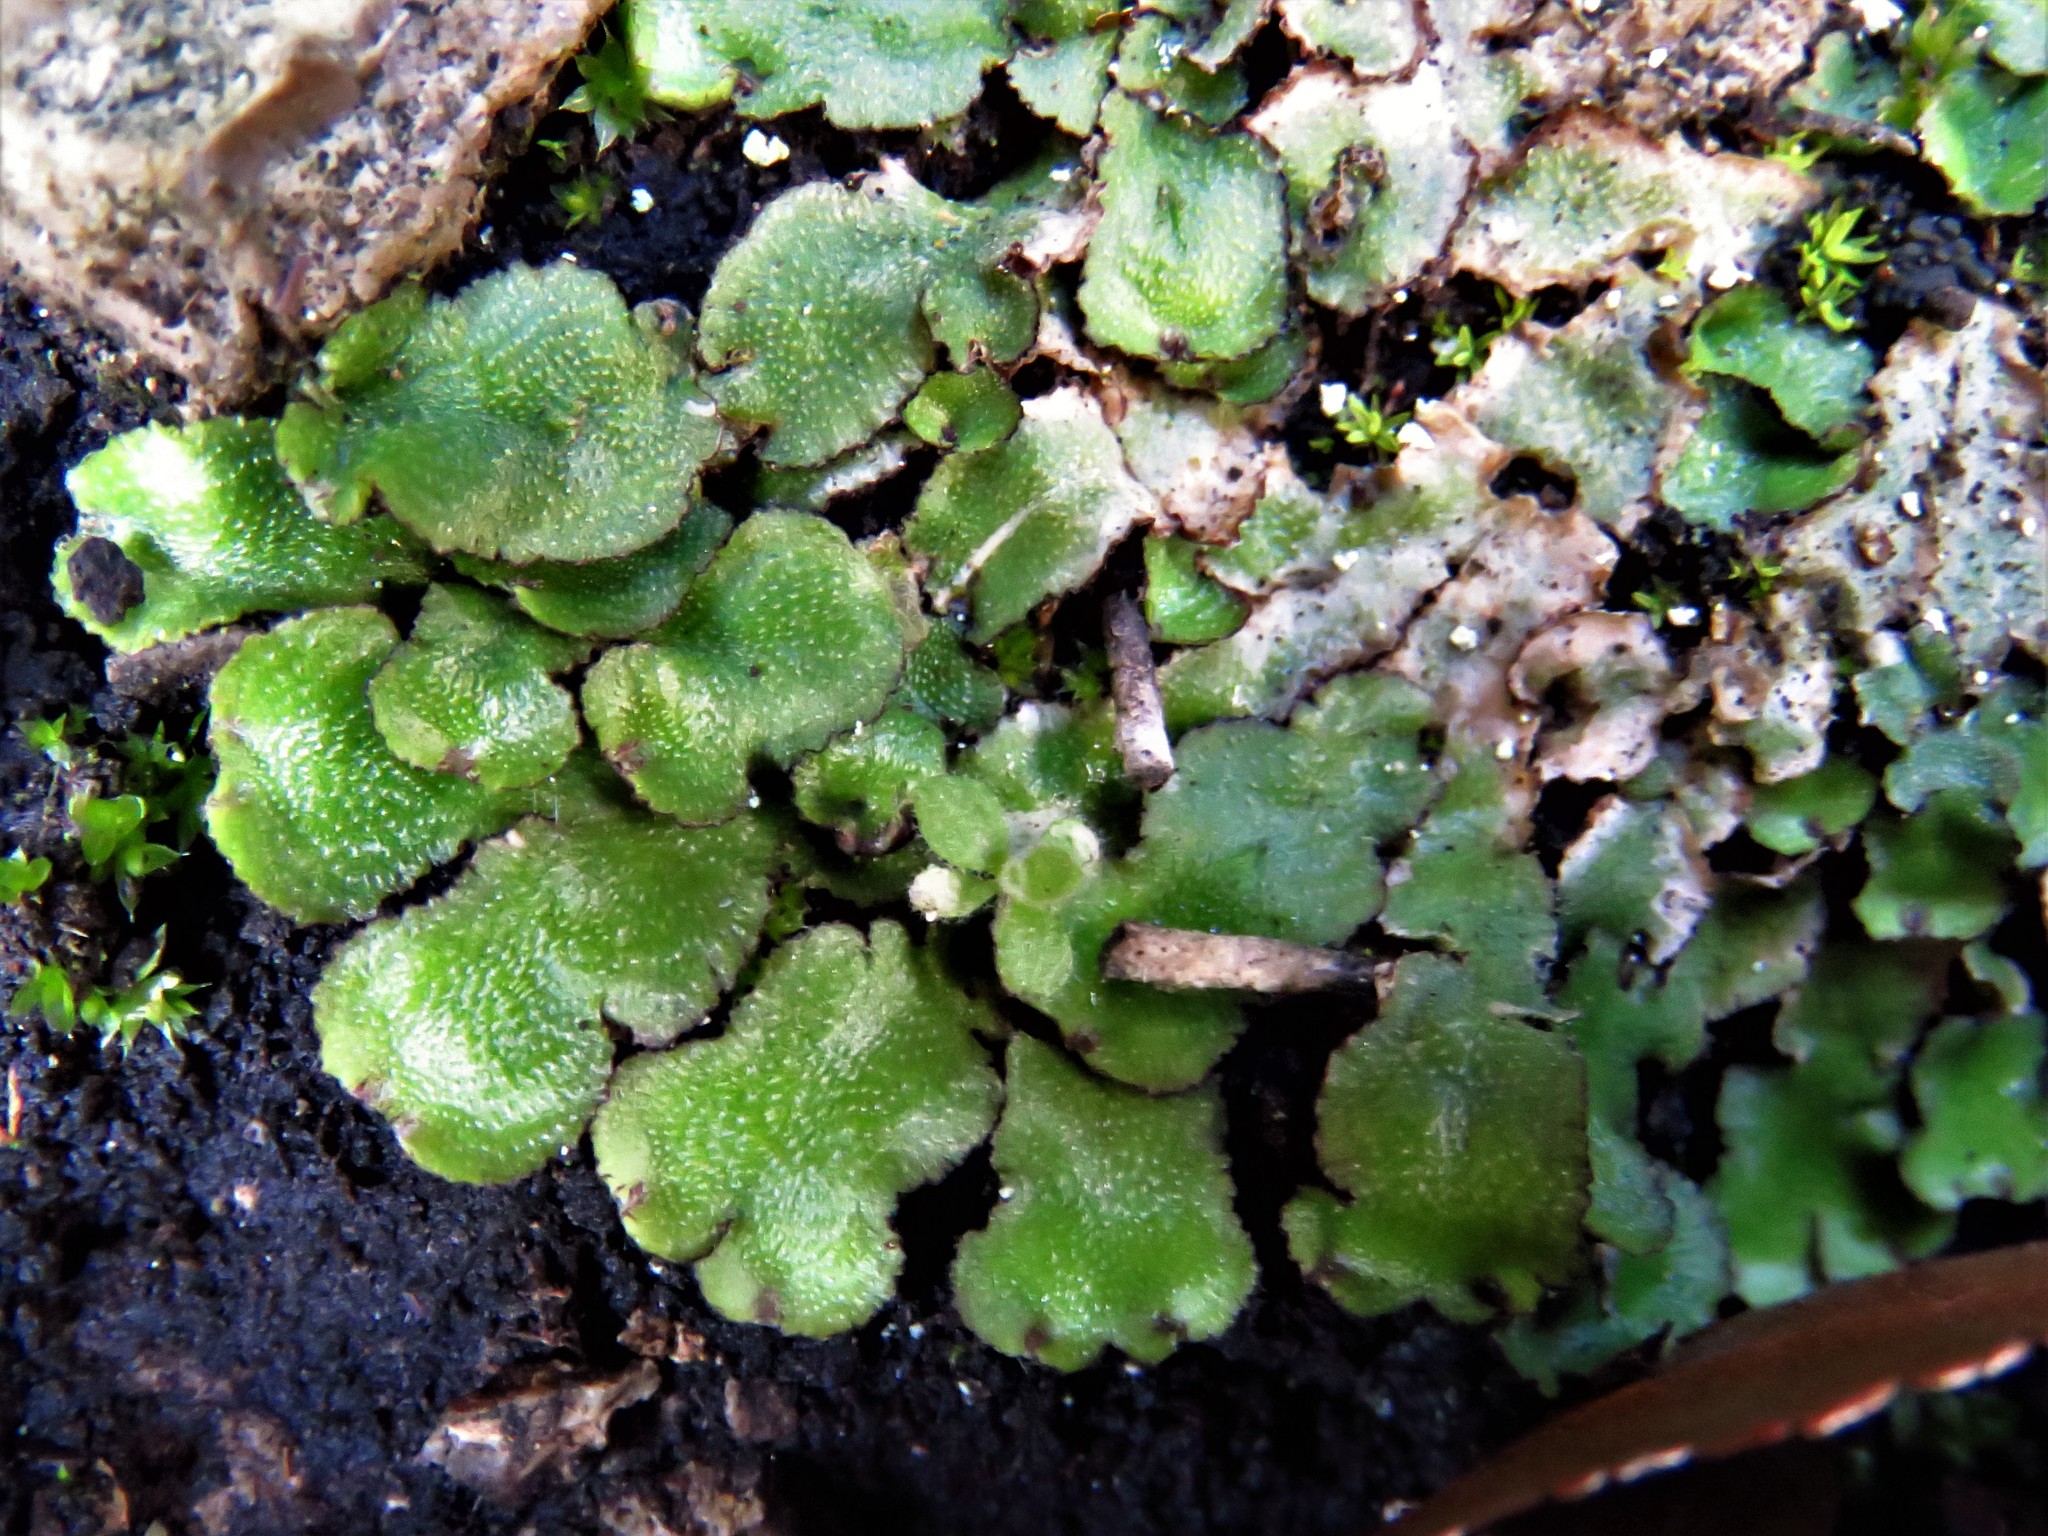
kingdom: Plantae
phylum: Marchantiophyta
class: Marchantiopsida
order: Marchantiales
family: Aytoniaceae
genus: Reboulia
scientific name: Reboulia hemisphaerica
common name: Purple-margined liverwort
